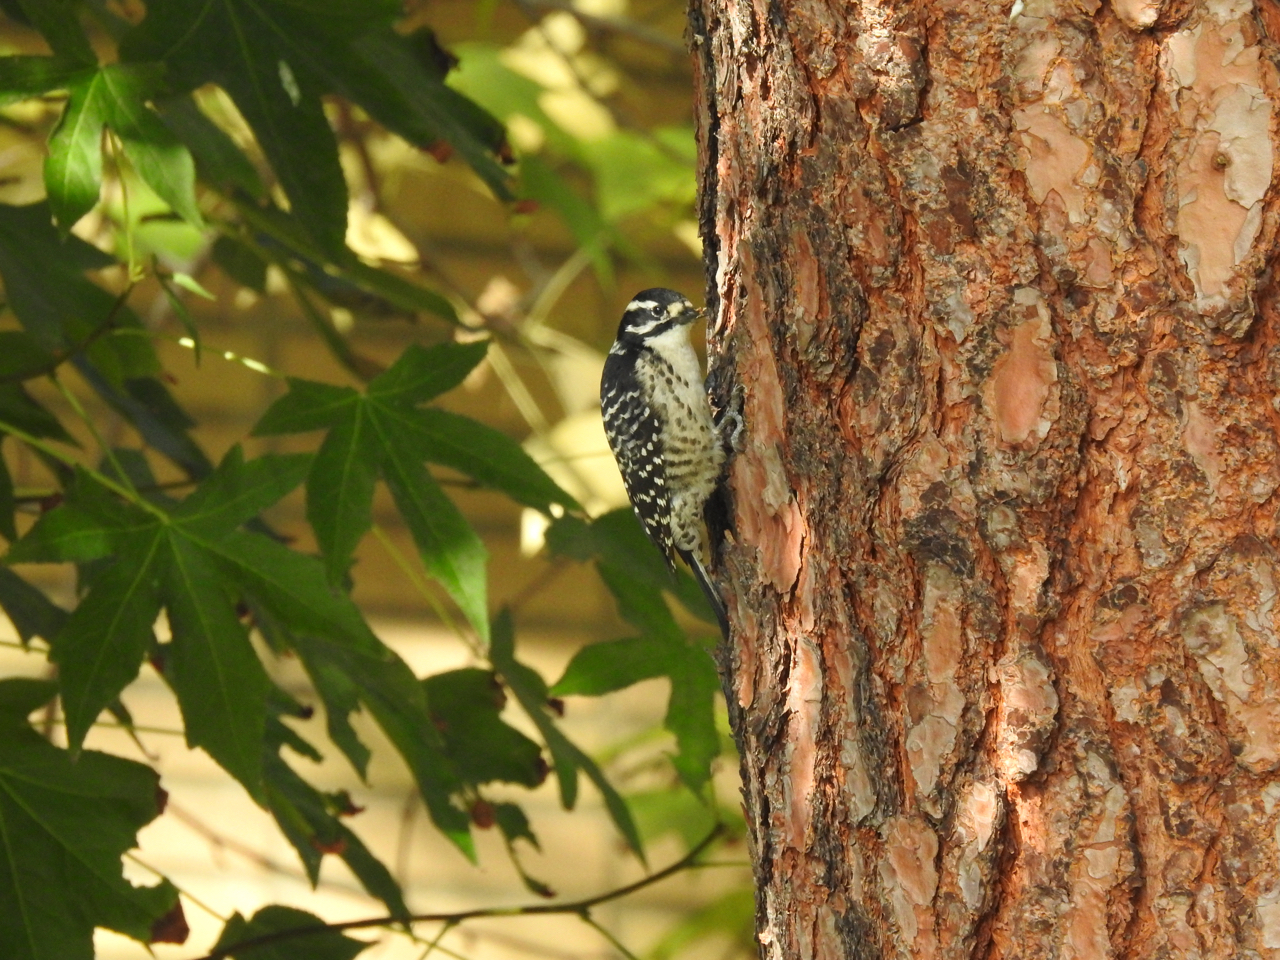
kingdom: Animalia
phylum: Chordata
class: Aves
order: Piciformes
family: Picidae
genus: Dryobates
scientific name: Dryobates nuttallii
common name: Nuttall's woodpecker
